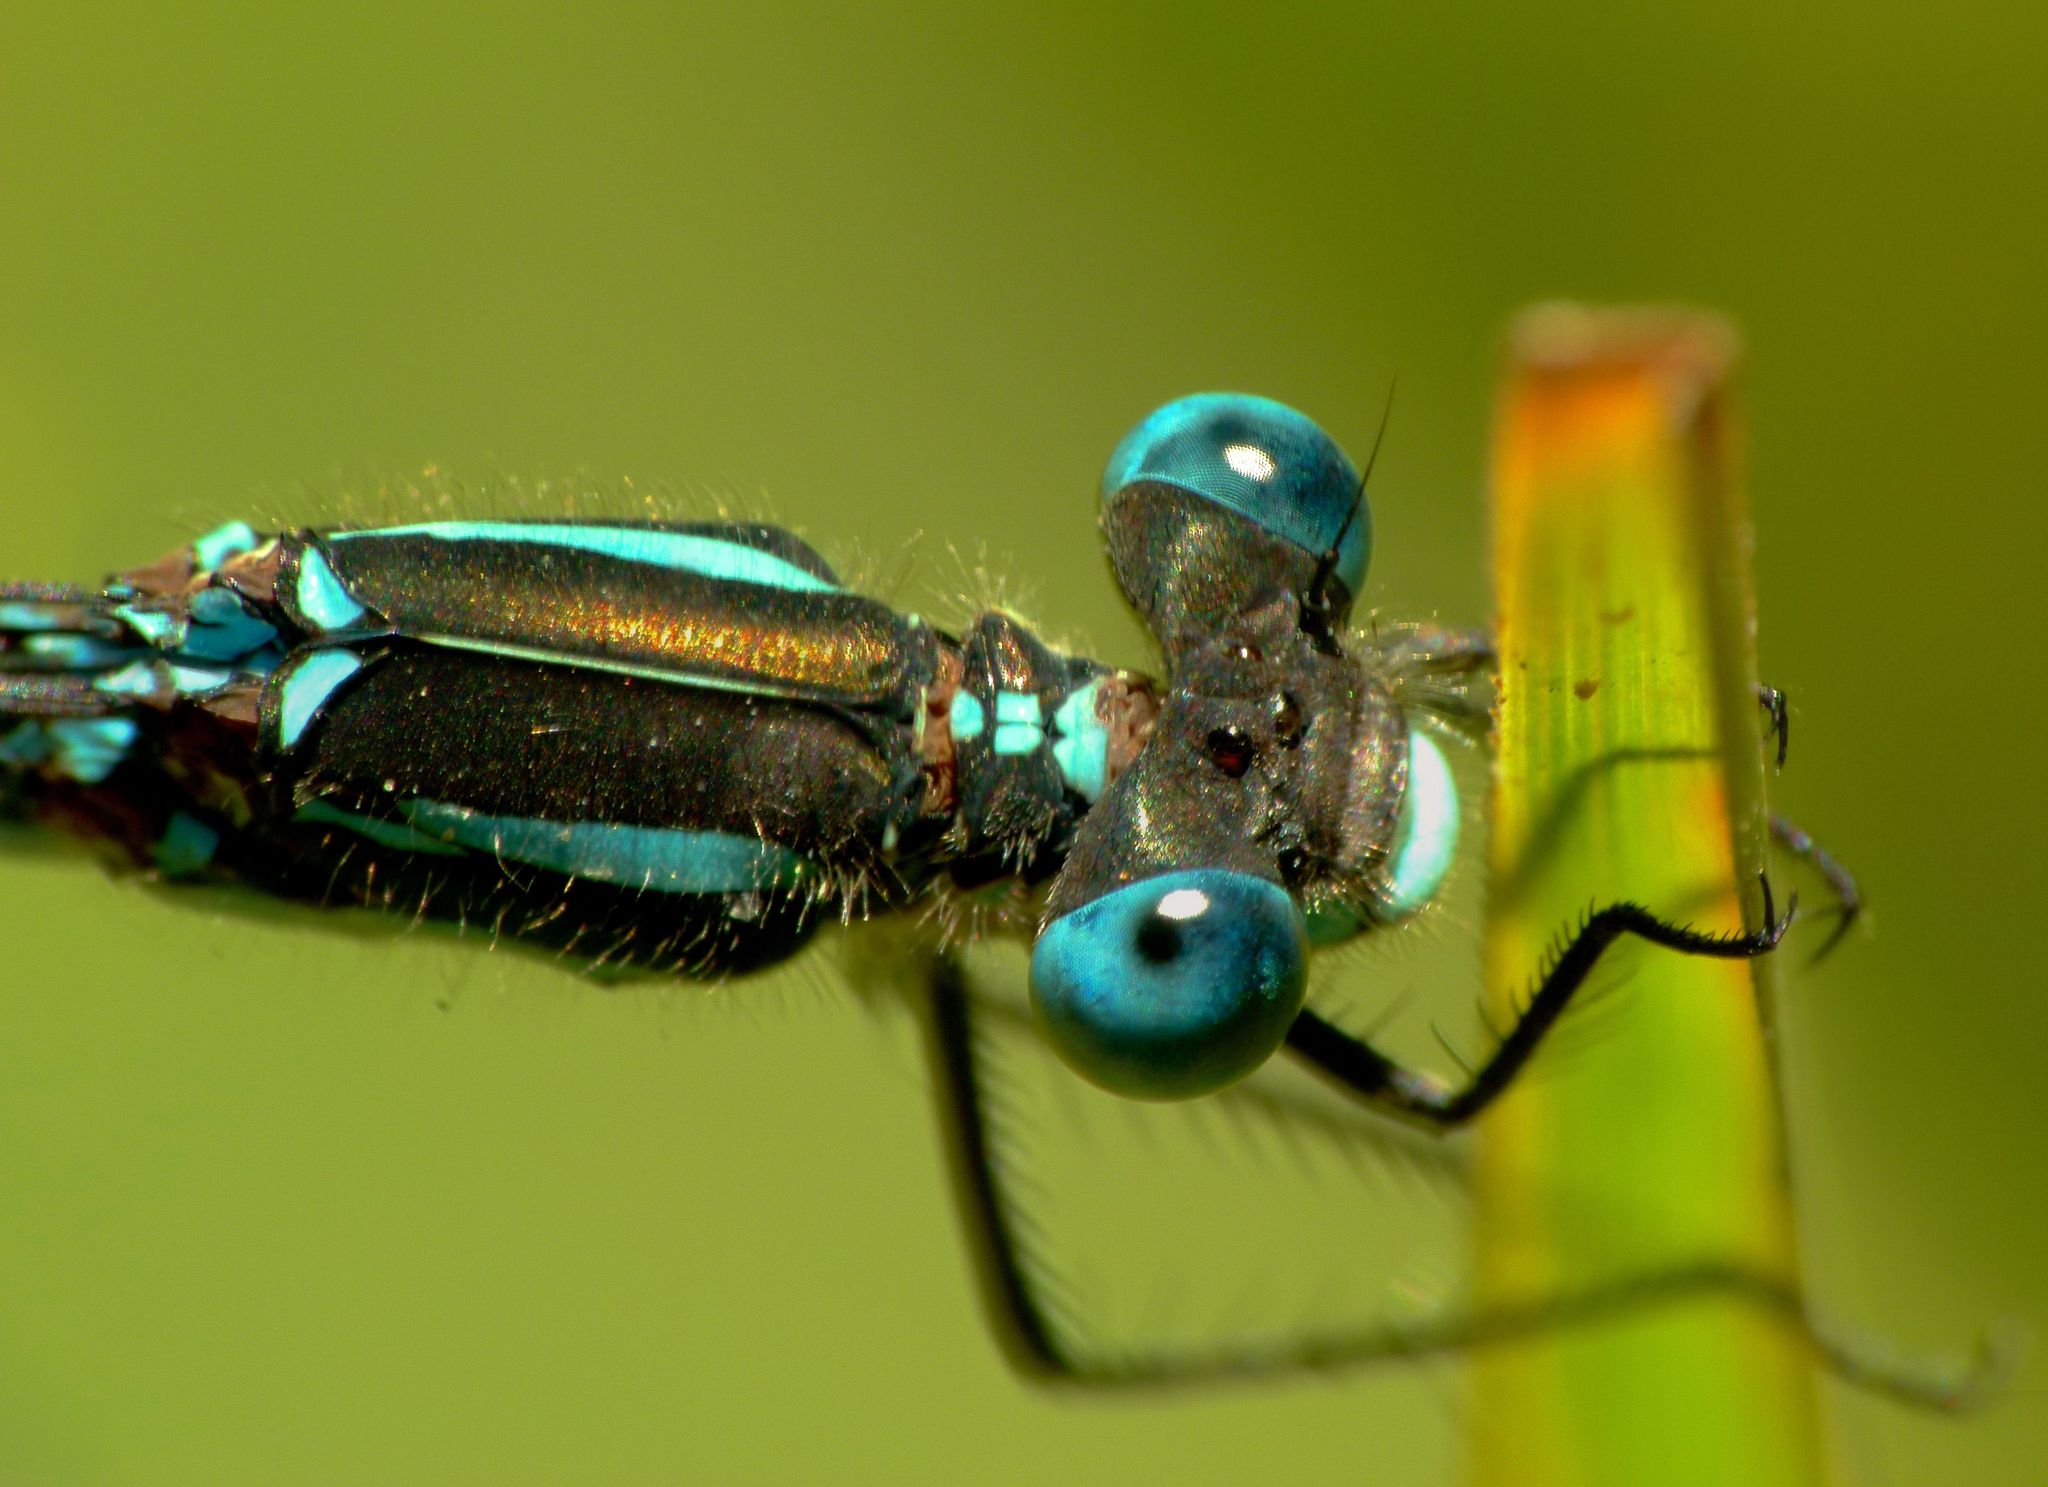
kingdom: Animalia
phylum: Arthropoda
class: Insecta
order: Odonata
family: Lestidae
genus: Austrolestes
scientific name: Austrolestes colensonis
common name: Blue damselfly
